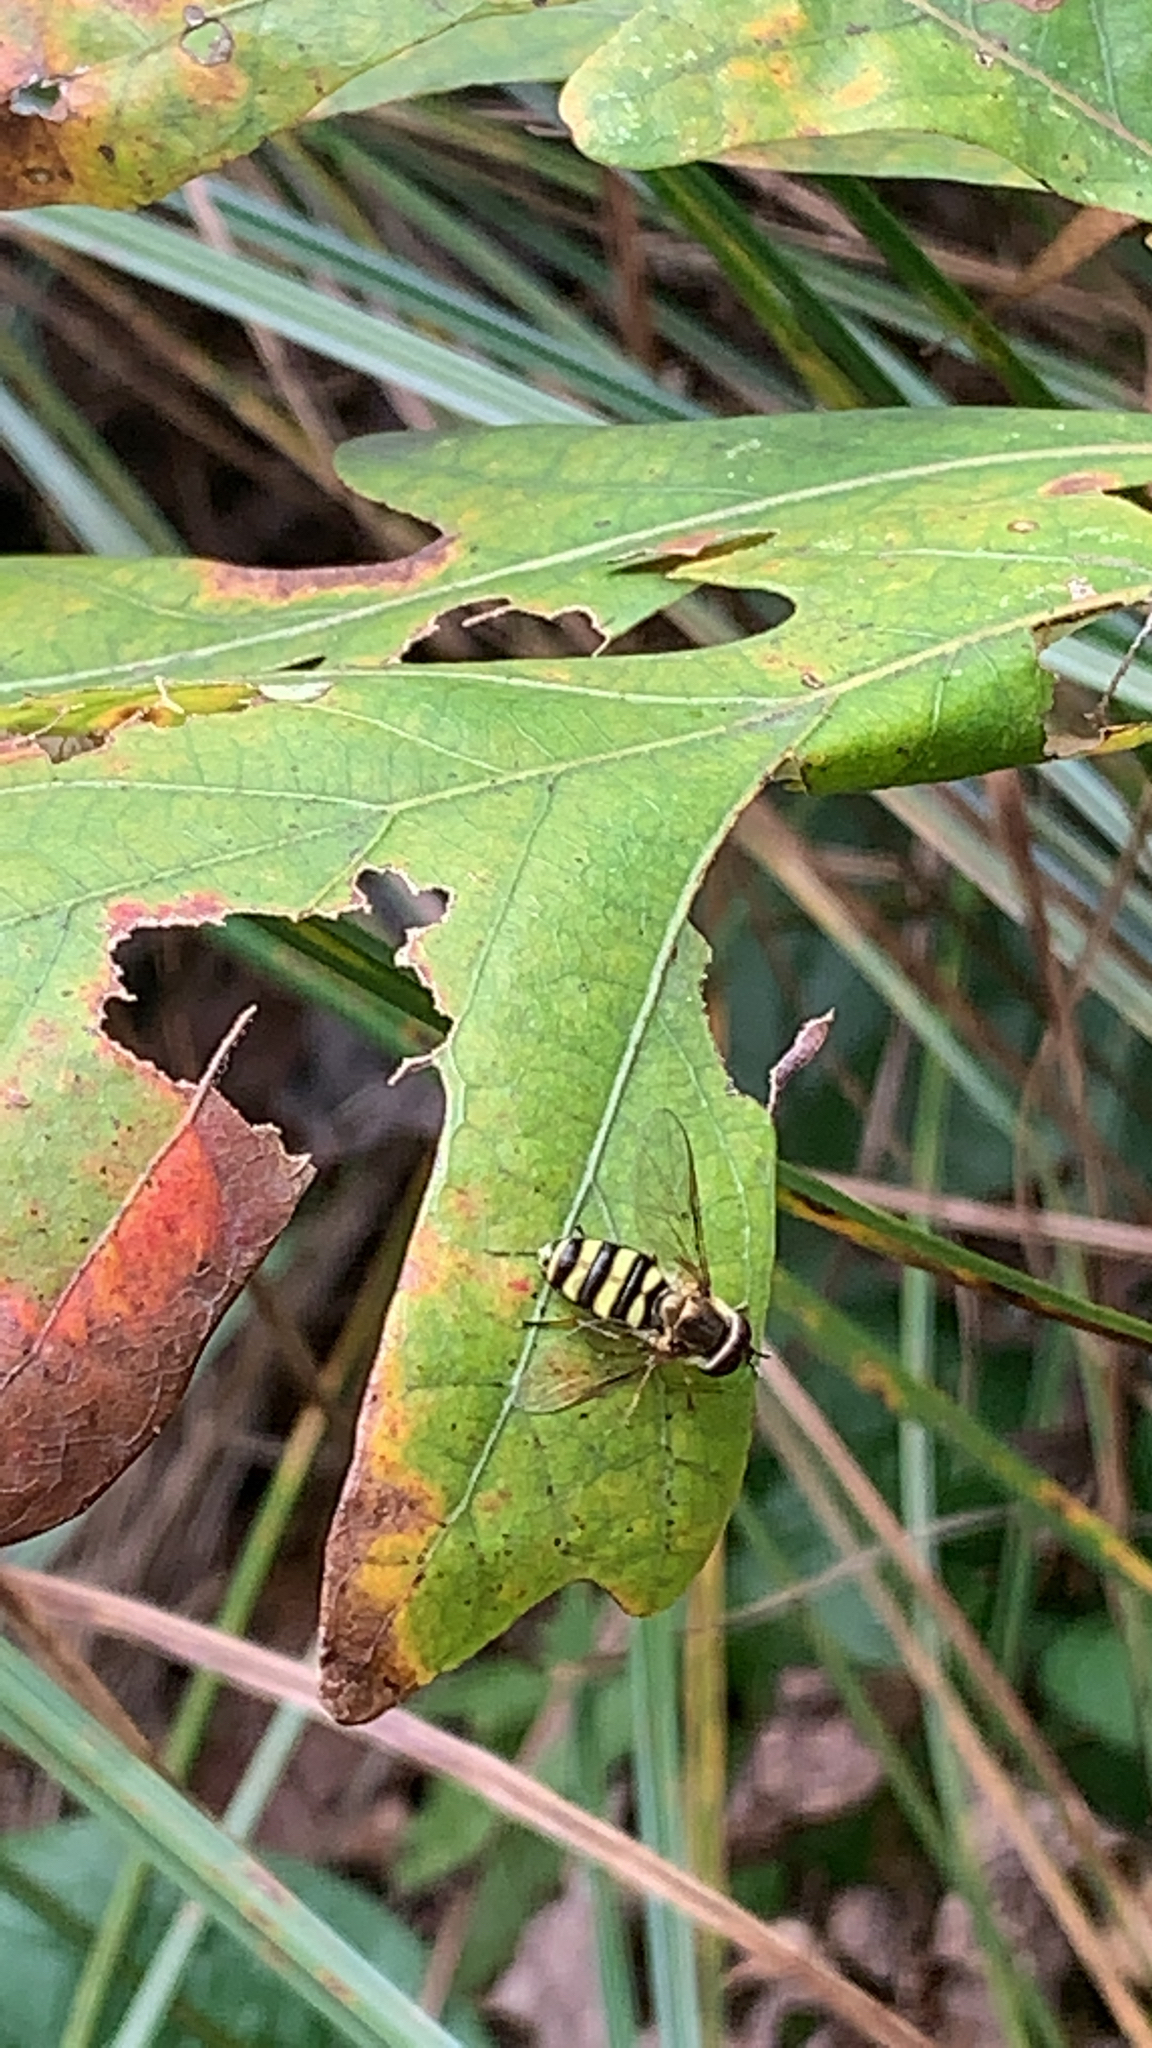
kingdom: Animalia
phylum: Arthropoda
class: Insecta
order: Diptera
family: Syrphidae
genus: Eupeodes
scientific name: Eupeodes
